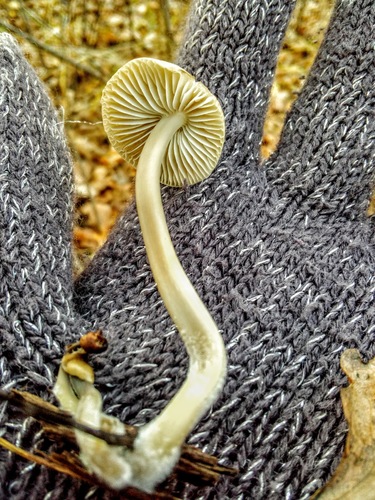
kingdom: Fungi
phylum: Basidiomycota
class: Agaricomycetes
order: Agaricales
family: Mycenaceae
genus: Mycena
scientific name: Mycena
